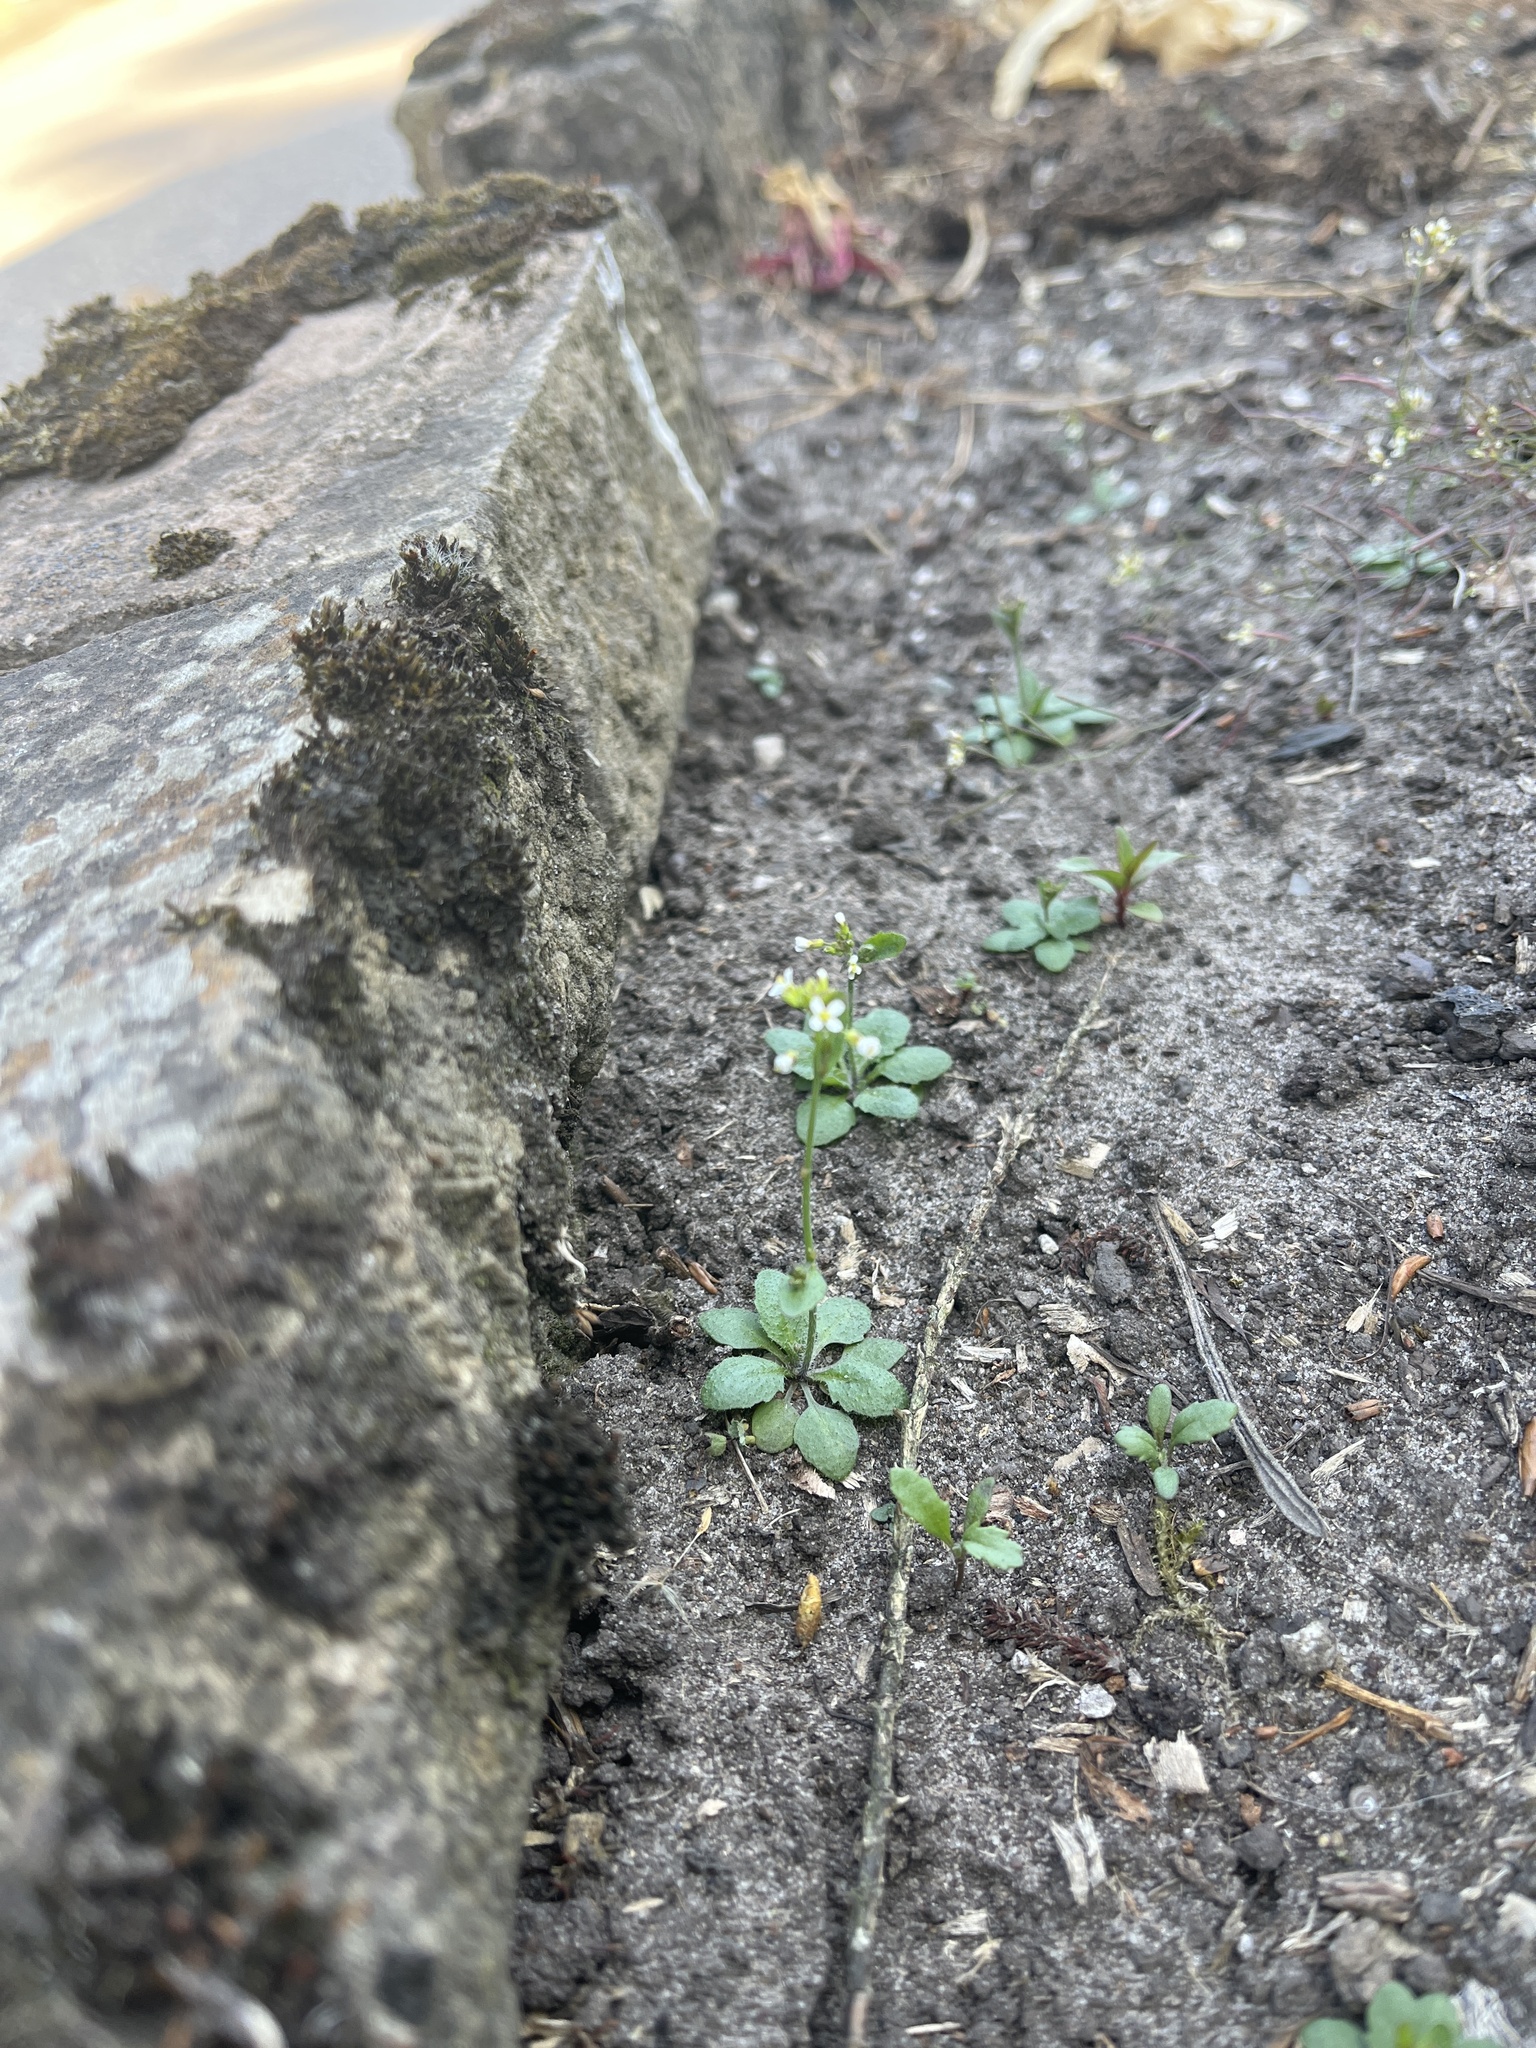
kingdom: Plantae
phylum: Tracheophyta
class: Magnoliopsida
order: Brassicales
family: Brassicaceae
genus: Arabidopsis
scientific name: Arabidopsis thaliana
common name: Thale cress
